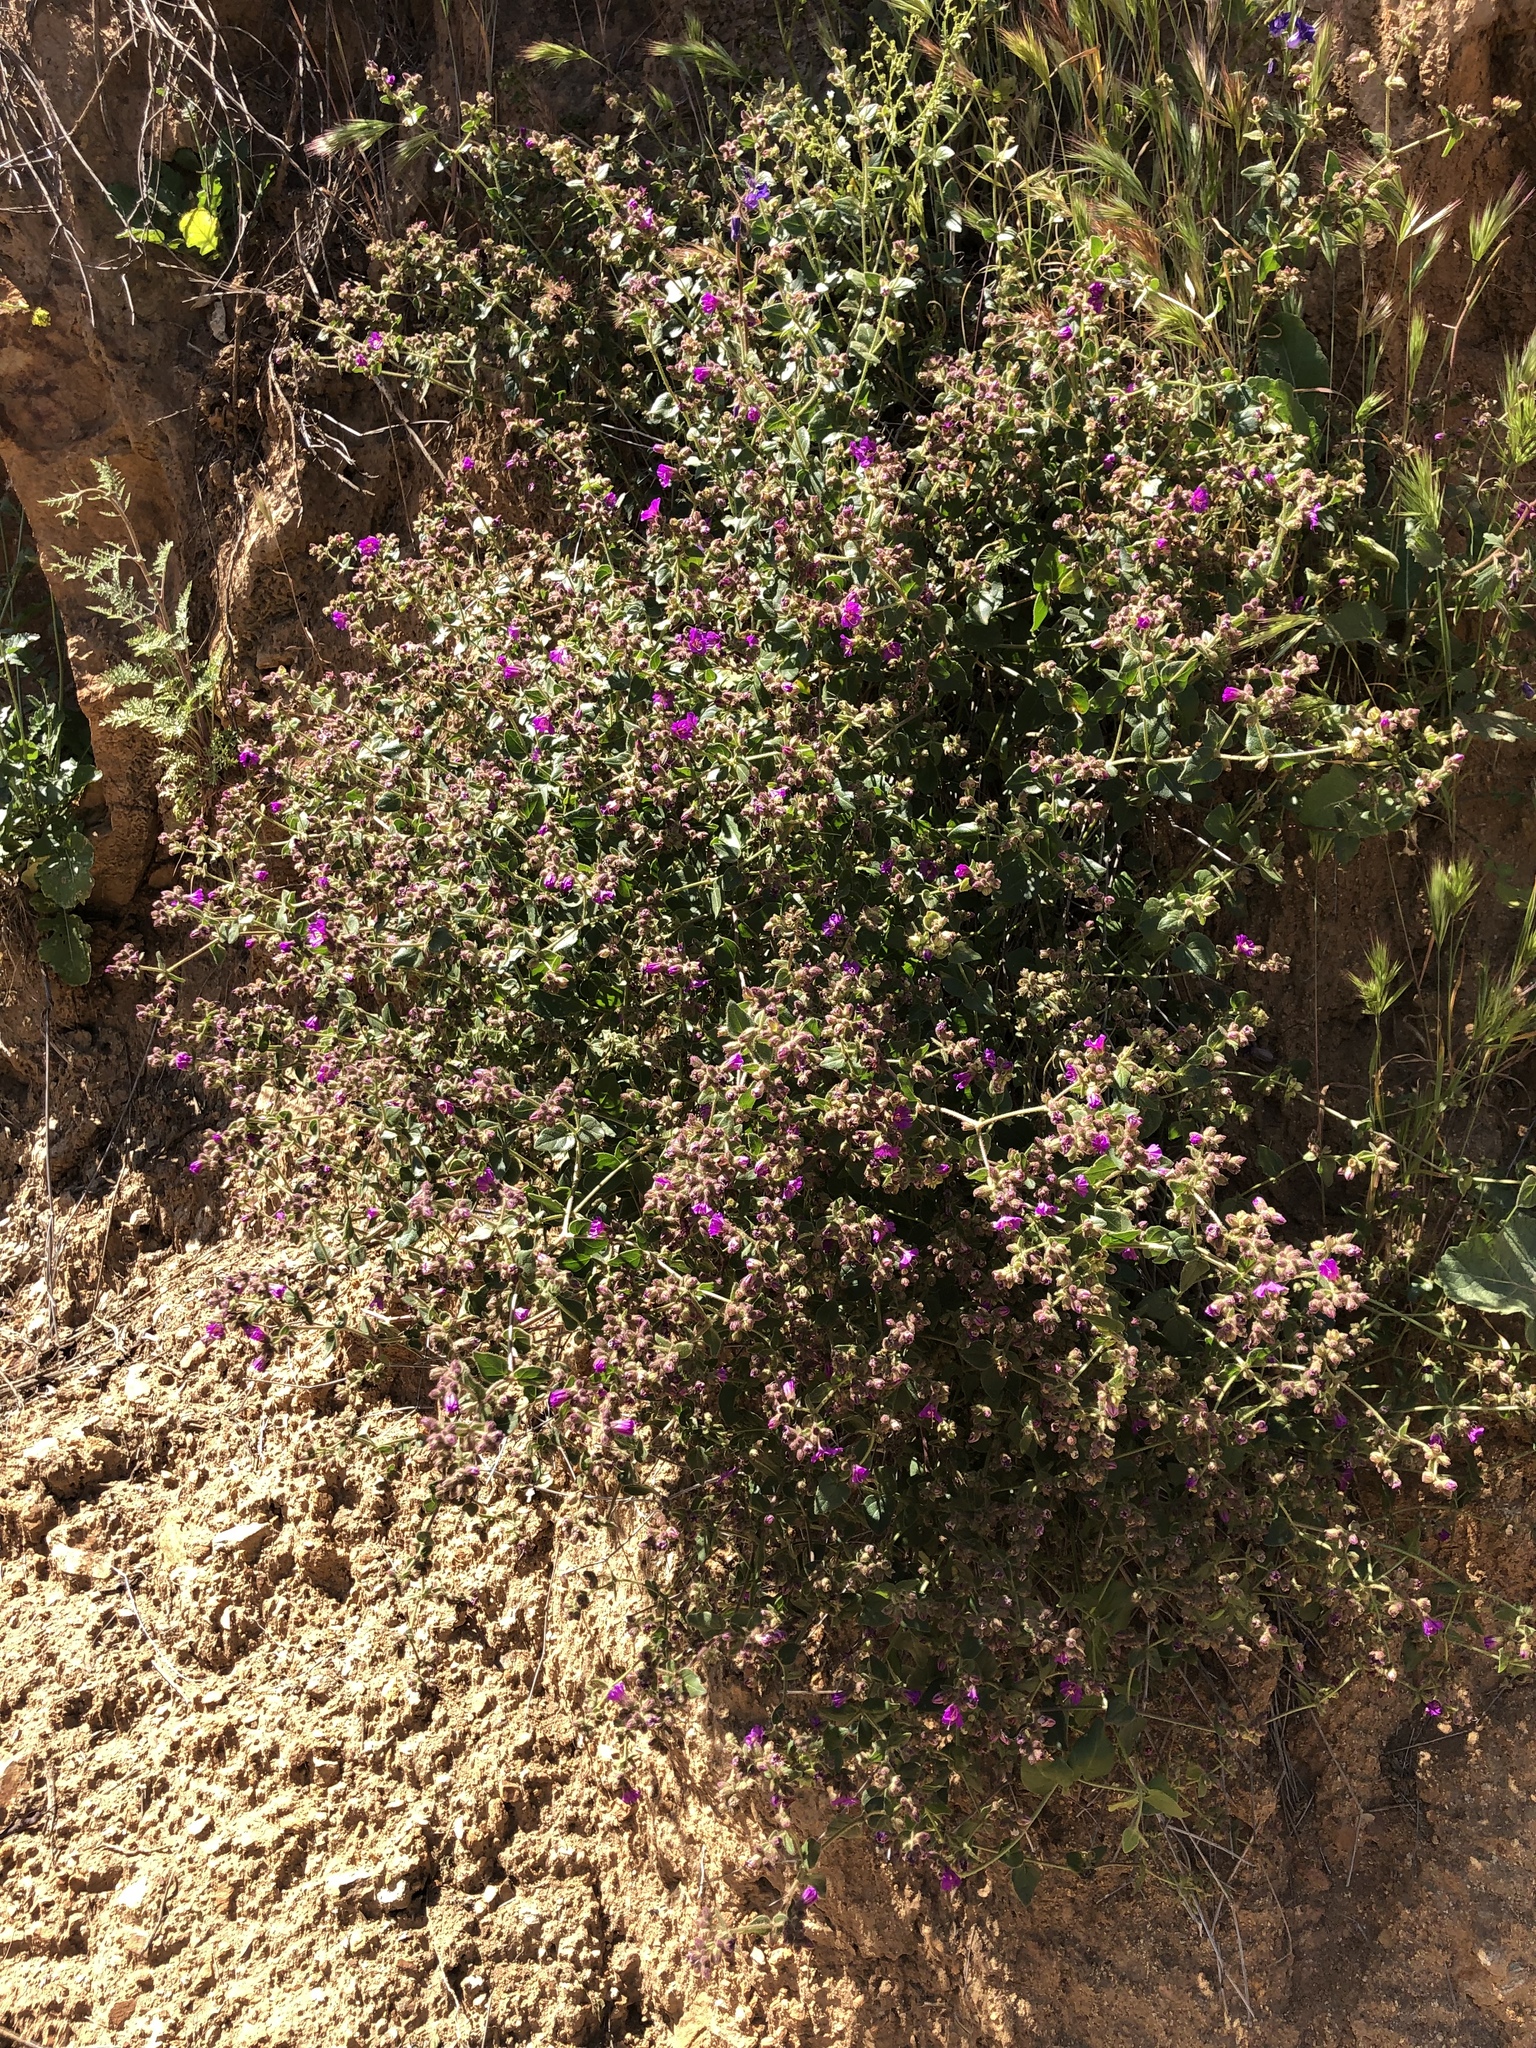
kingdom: Plantae
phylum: Tracheophyta
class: Magnoliopsida
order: Caryophyllales
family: Nyctaginaceae
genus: Mirabilis
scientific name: Mirabilis laevis
